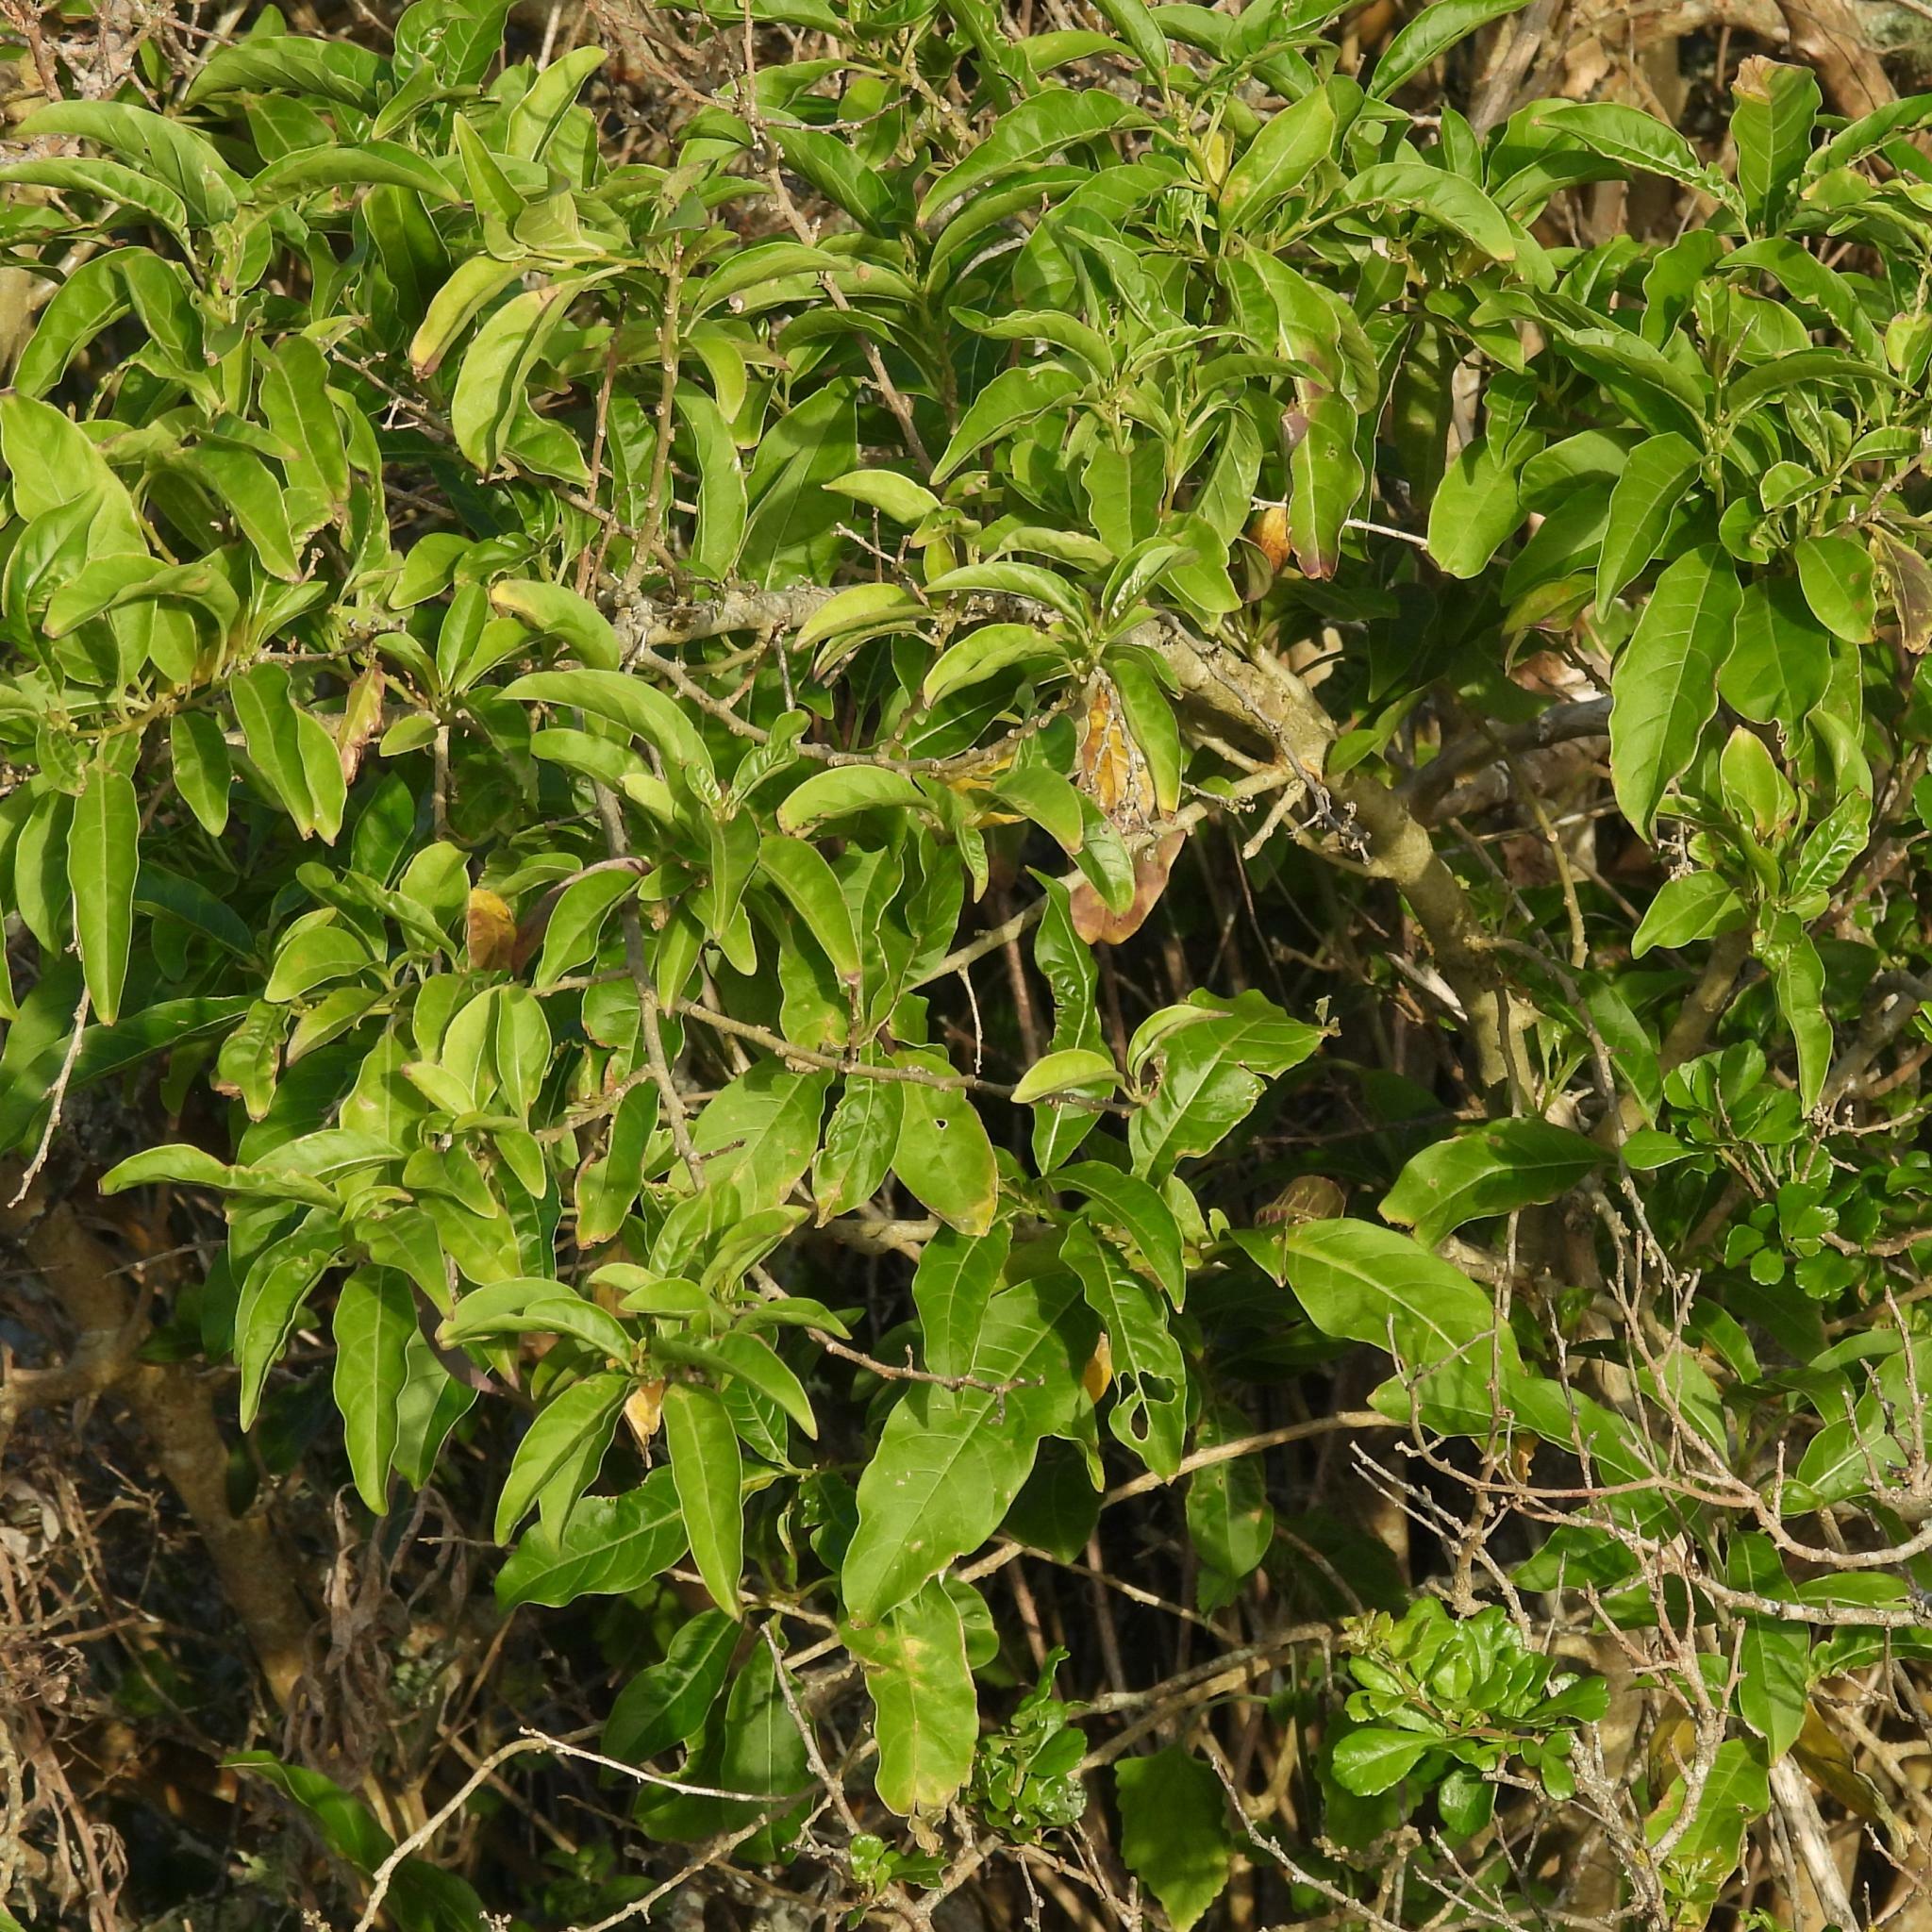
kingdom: Plantae
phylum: Tracheophyta
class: Magnoliopsida
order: Solanales
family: Solanaceae
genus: Cestrum
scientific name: Cestrum laevigatum
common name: Inkberry
